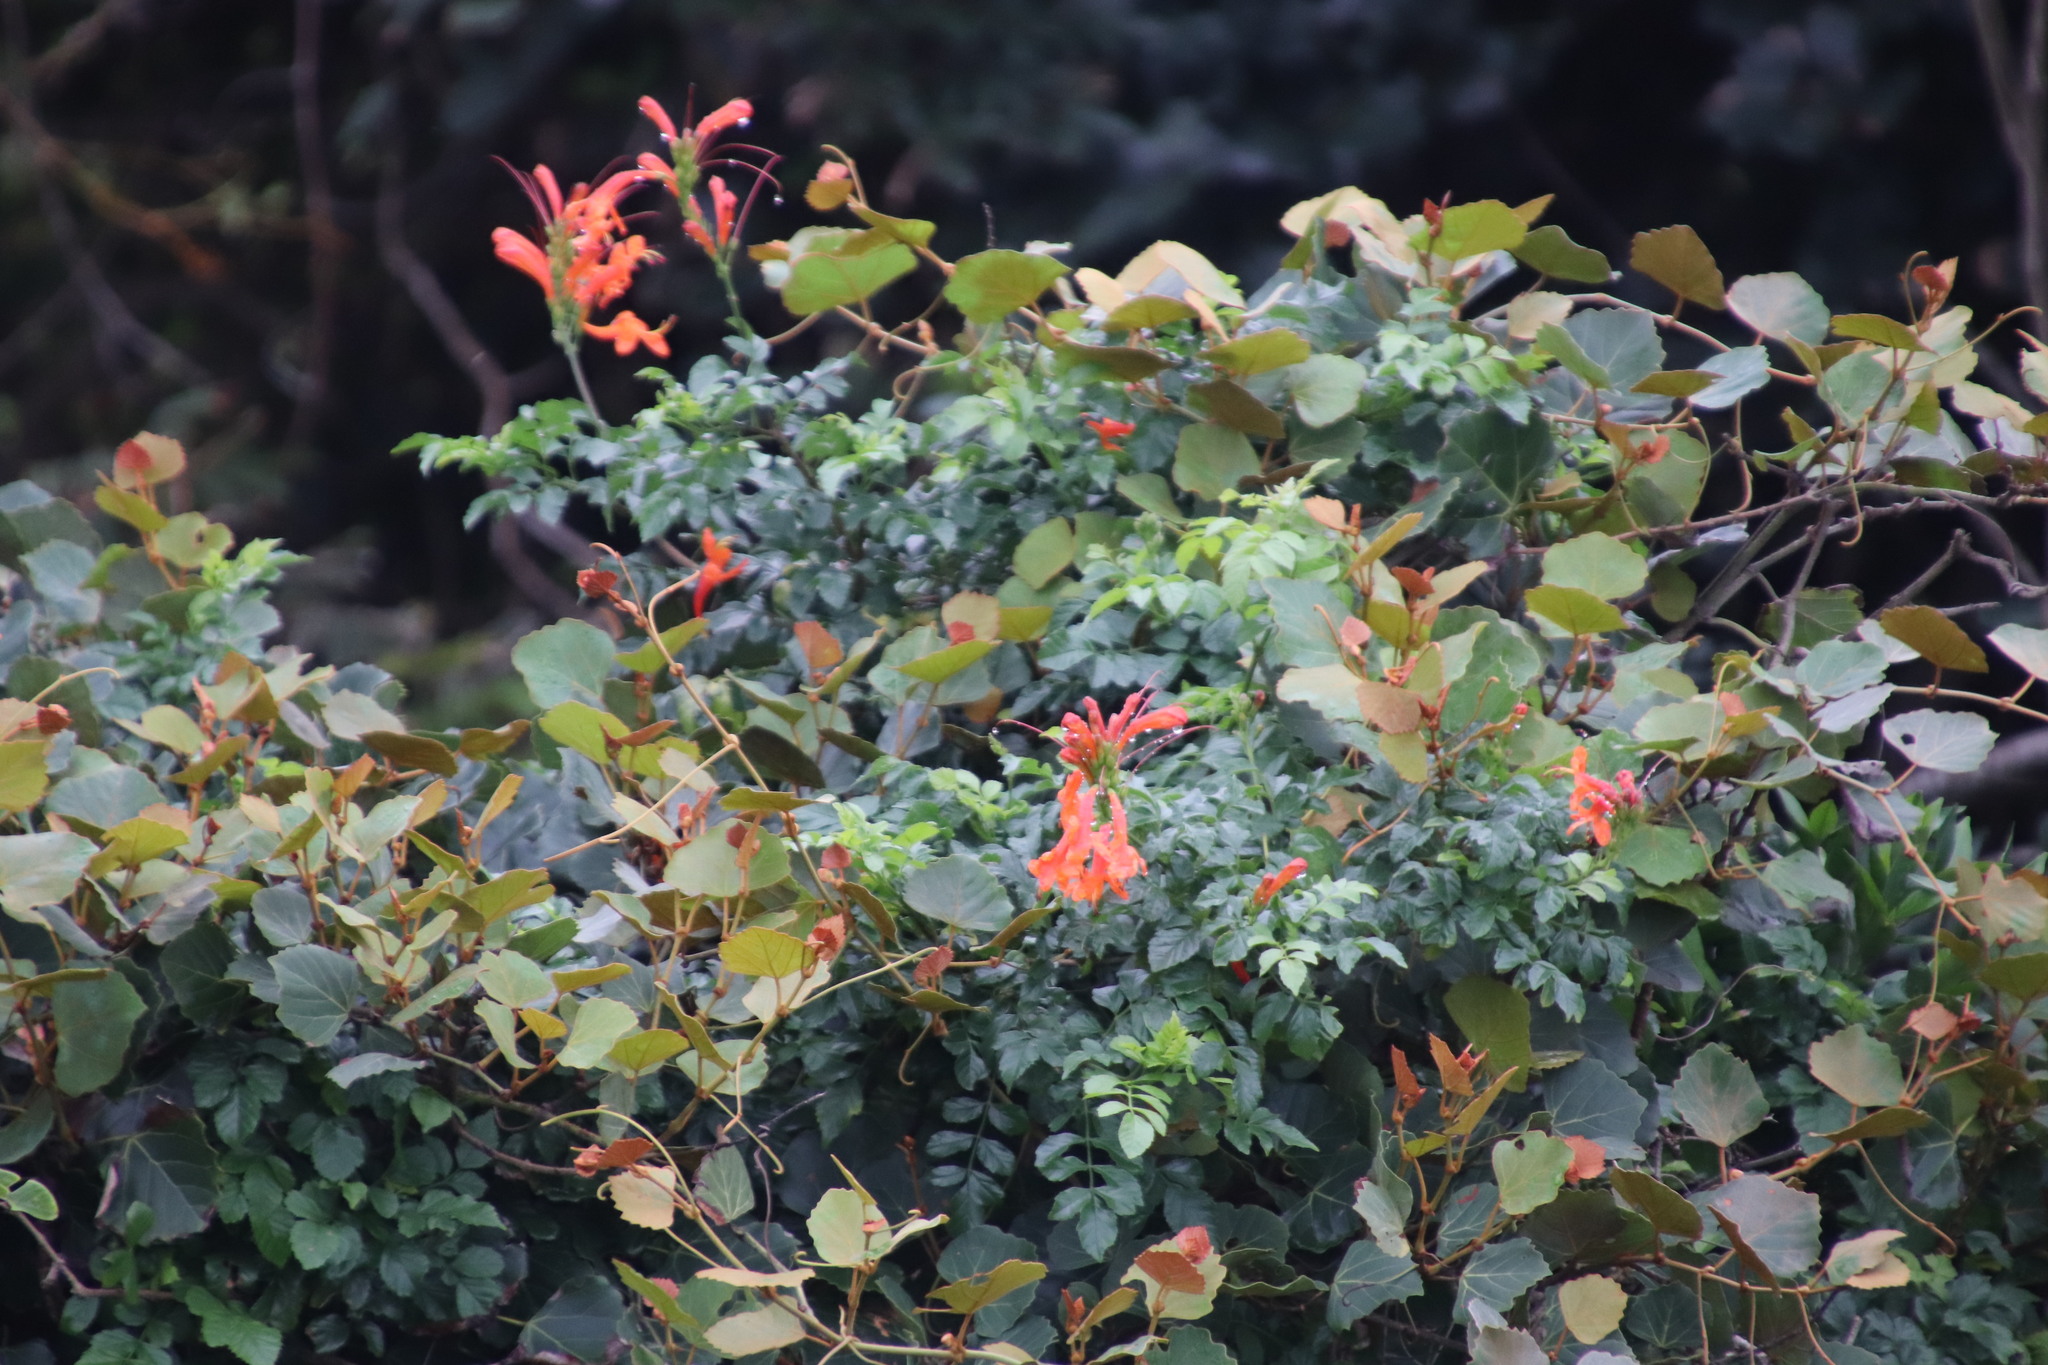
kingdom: Plantae
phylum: Tracheophyta
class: Magnoliopsida
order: Lamiales
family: Bignoniaceae
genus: Tecomaria
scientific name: Tecomaria capensis
